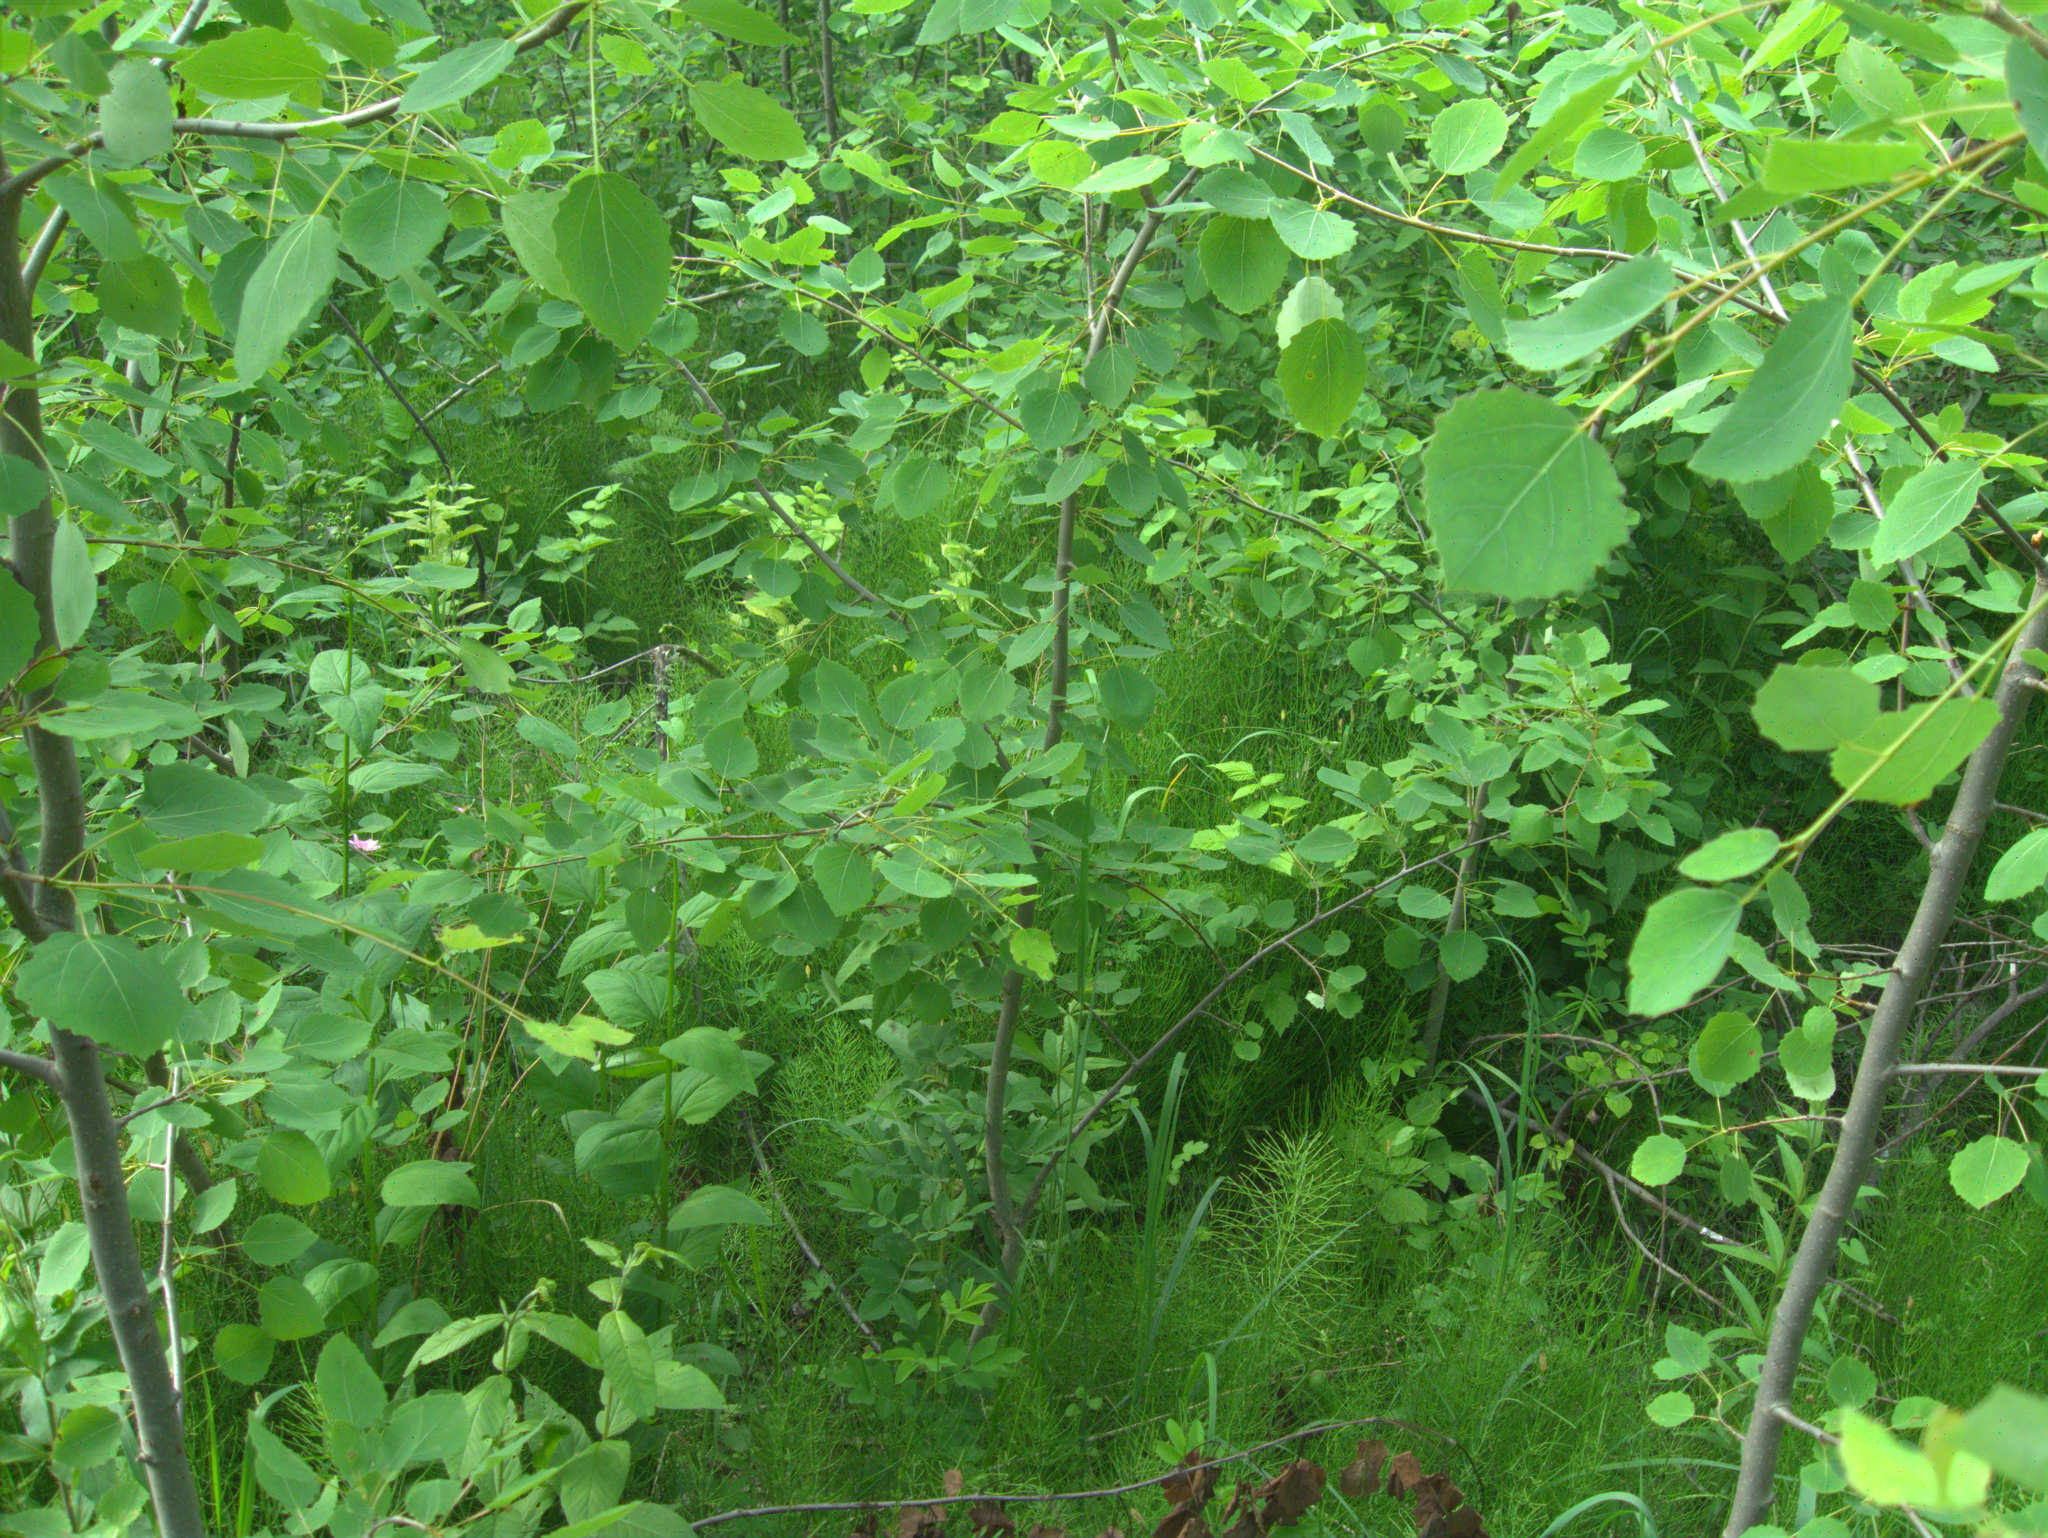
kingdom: Plantae
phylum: Tracheophyta
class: Polypodiopsida
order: Equisetales
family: Equisetaceae
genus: Equisetum
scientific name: Equisetum arvense
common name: Field horsetail
